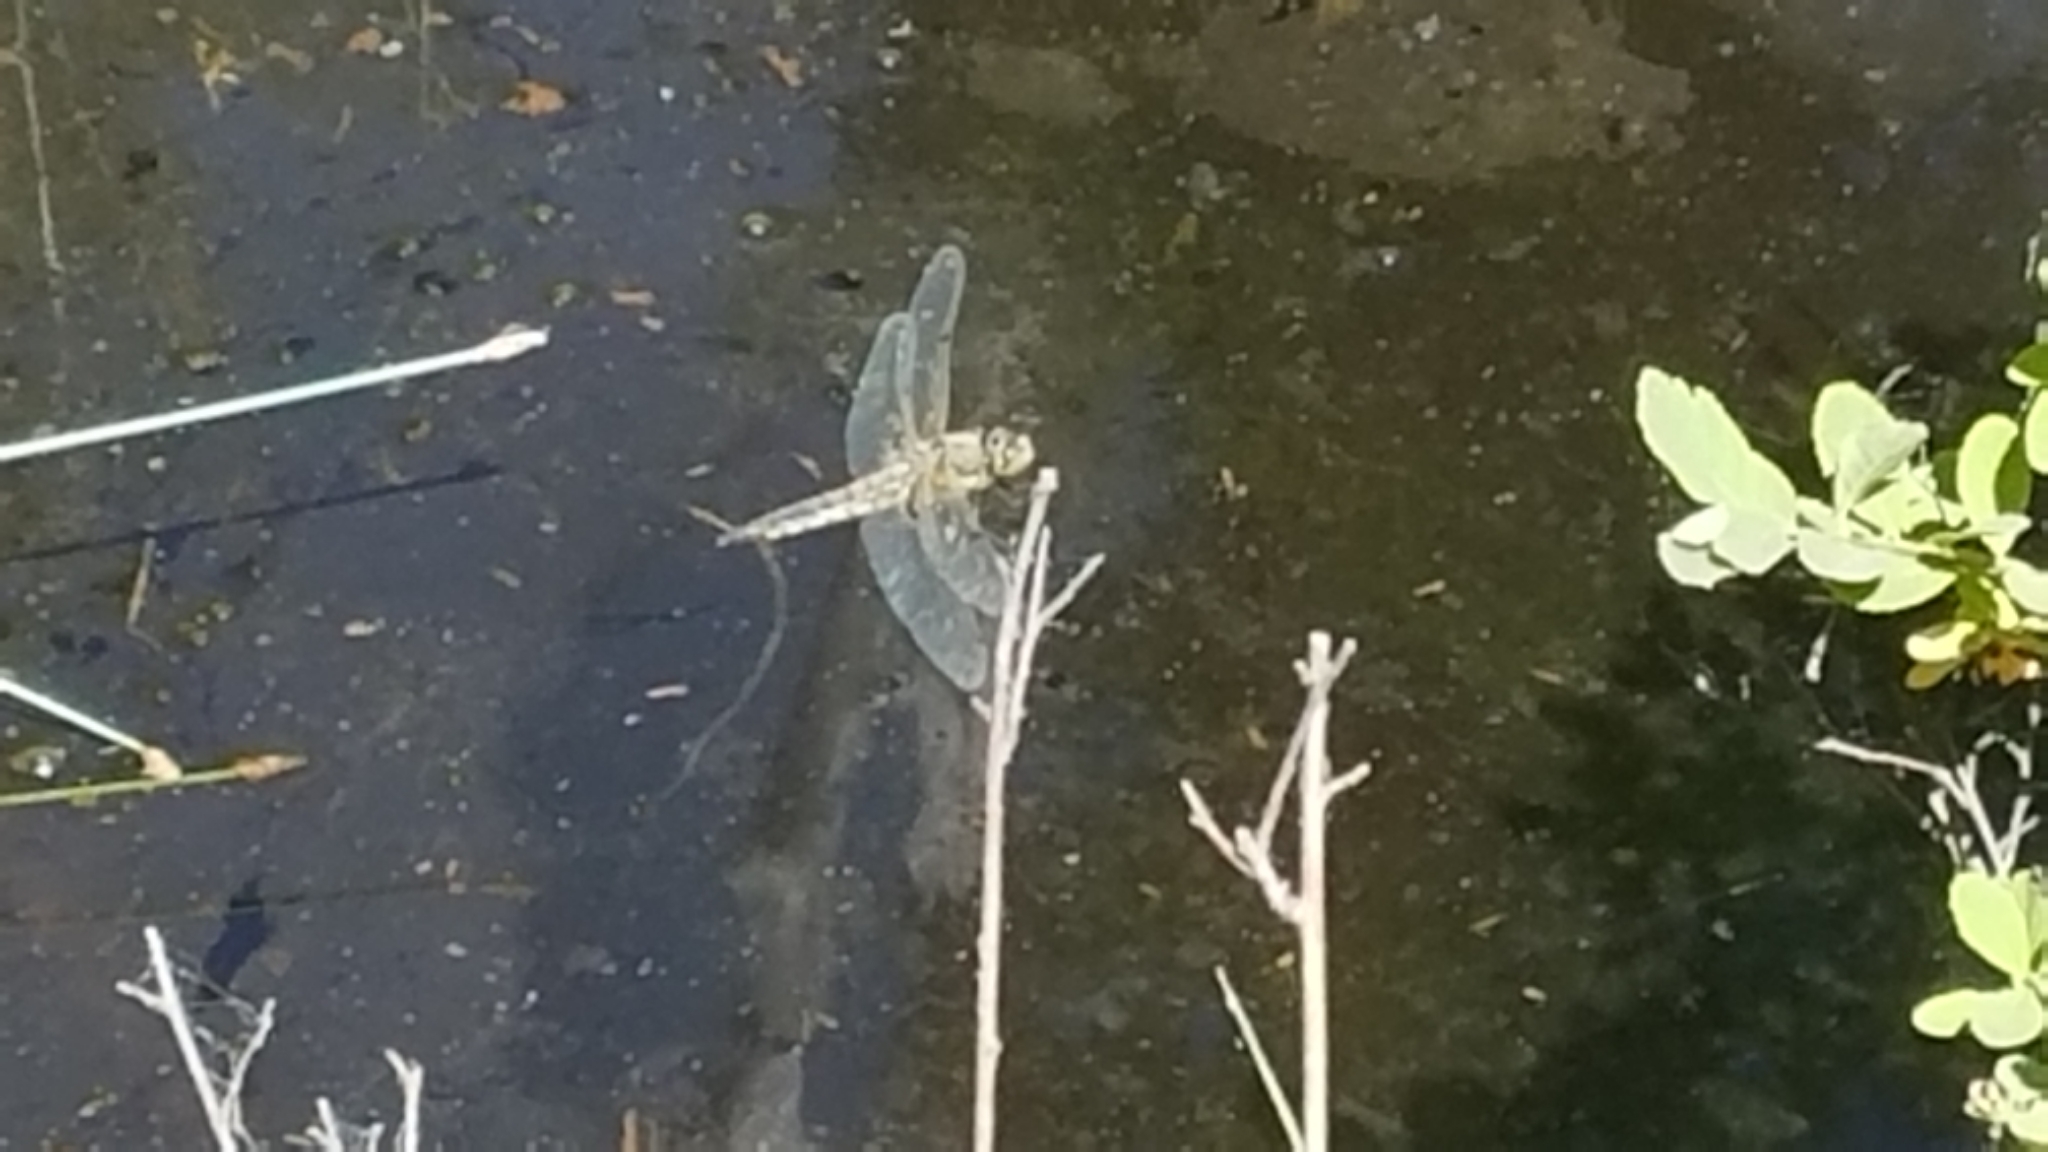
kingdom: Animalia
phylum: Arthropoda
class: Insecta
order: Odonata
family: Libellulidae
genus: Libellula
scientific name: Libellula quadrimaculata
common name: Four-spotted chaser
